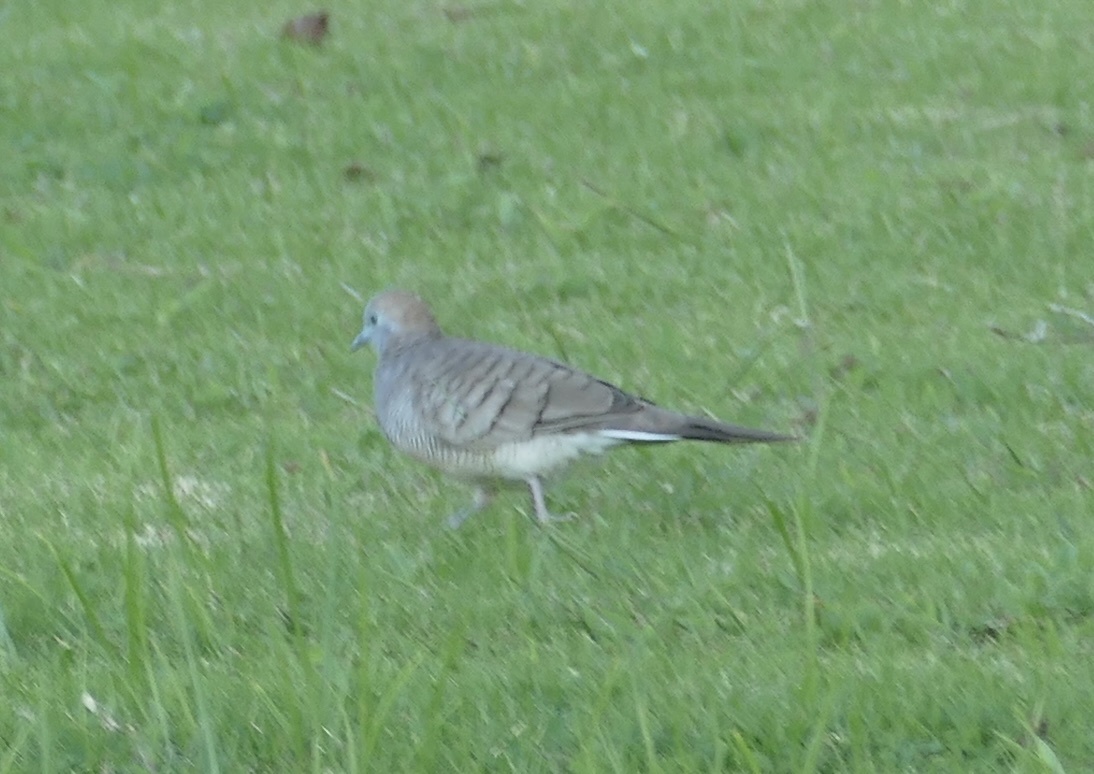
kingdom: Animalia
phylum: Chordata
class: Aves
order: Columbiformes
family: Columbidae
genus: Geopelia
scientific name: Geopelia striata
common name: Zebra dove
